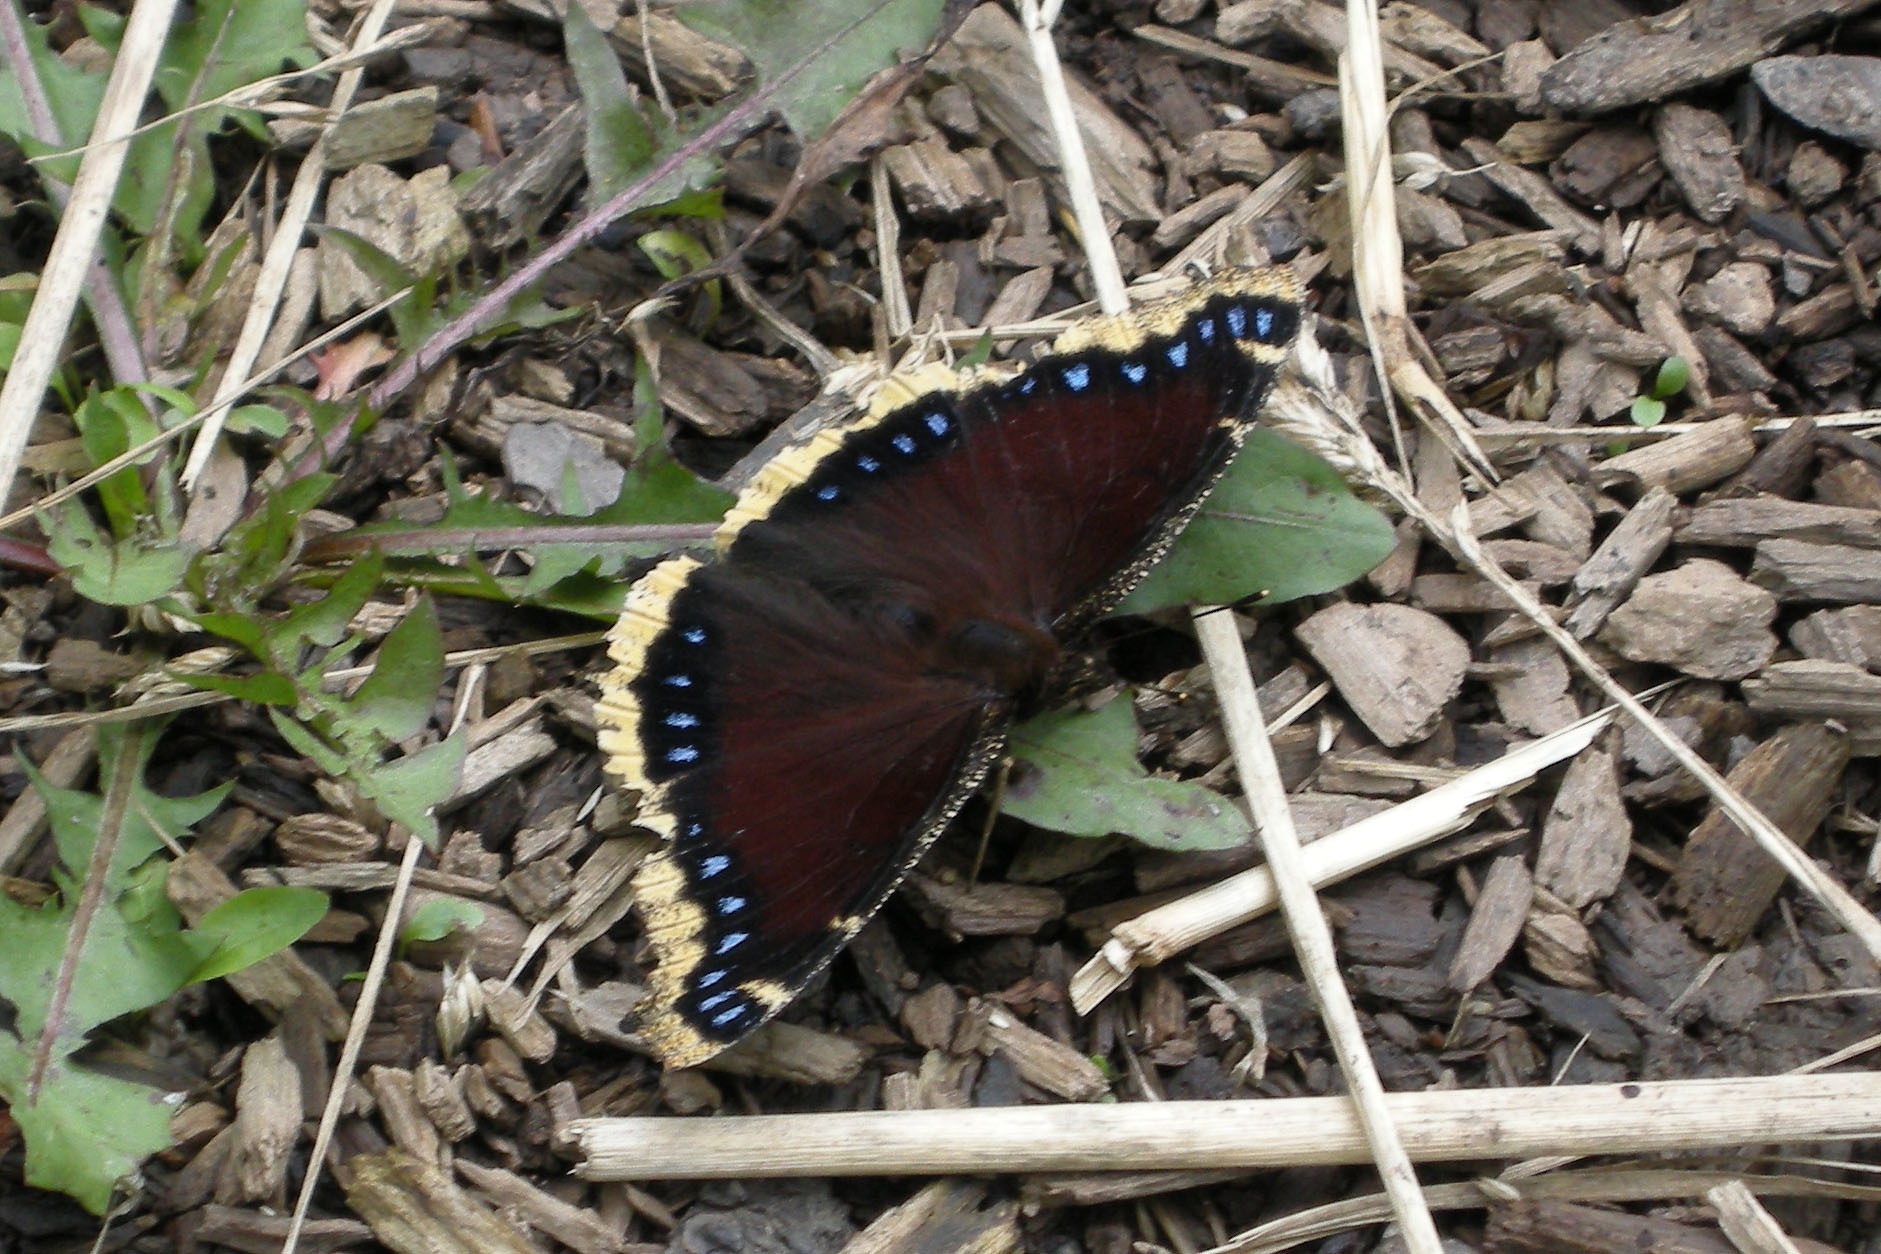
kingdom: Animalia
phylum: Arthropoda
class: Insecta
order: Lepidoptera
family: Nymphalidae
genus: Nymphalis
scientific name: Nymphalis antiopa
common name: Camberwell beauty
